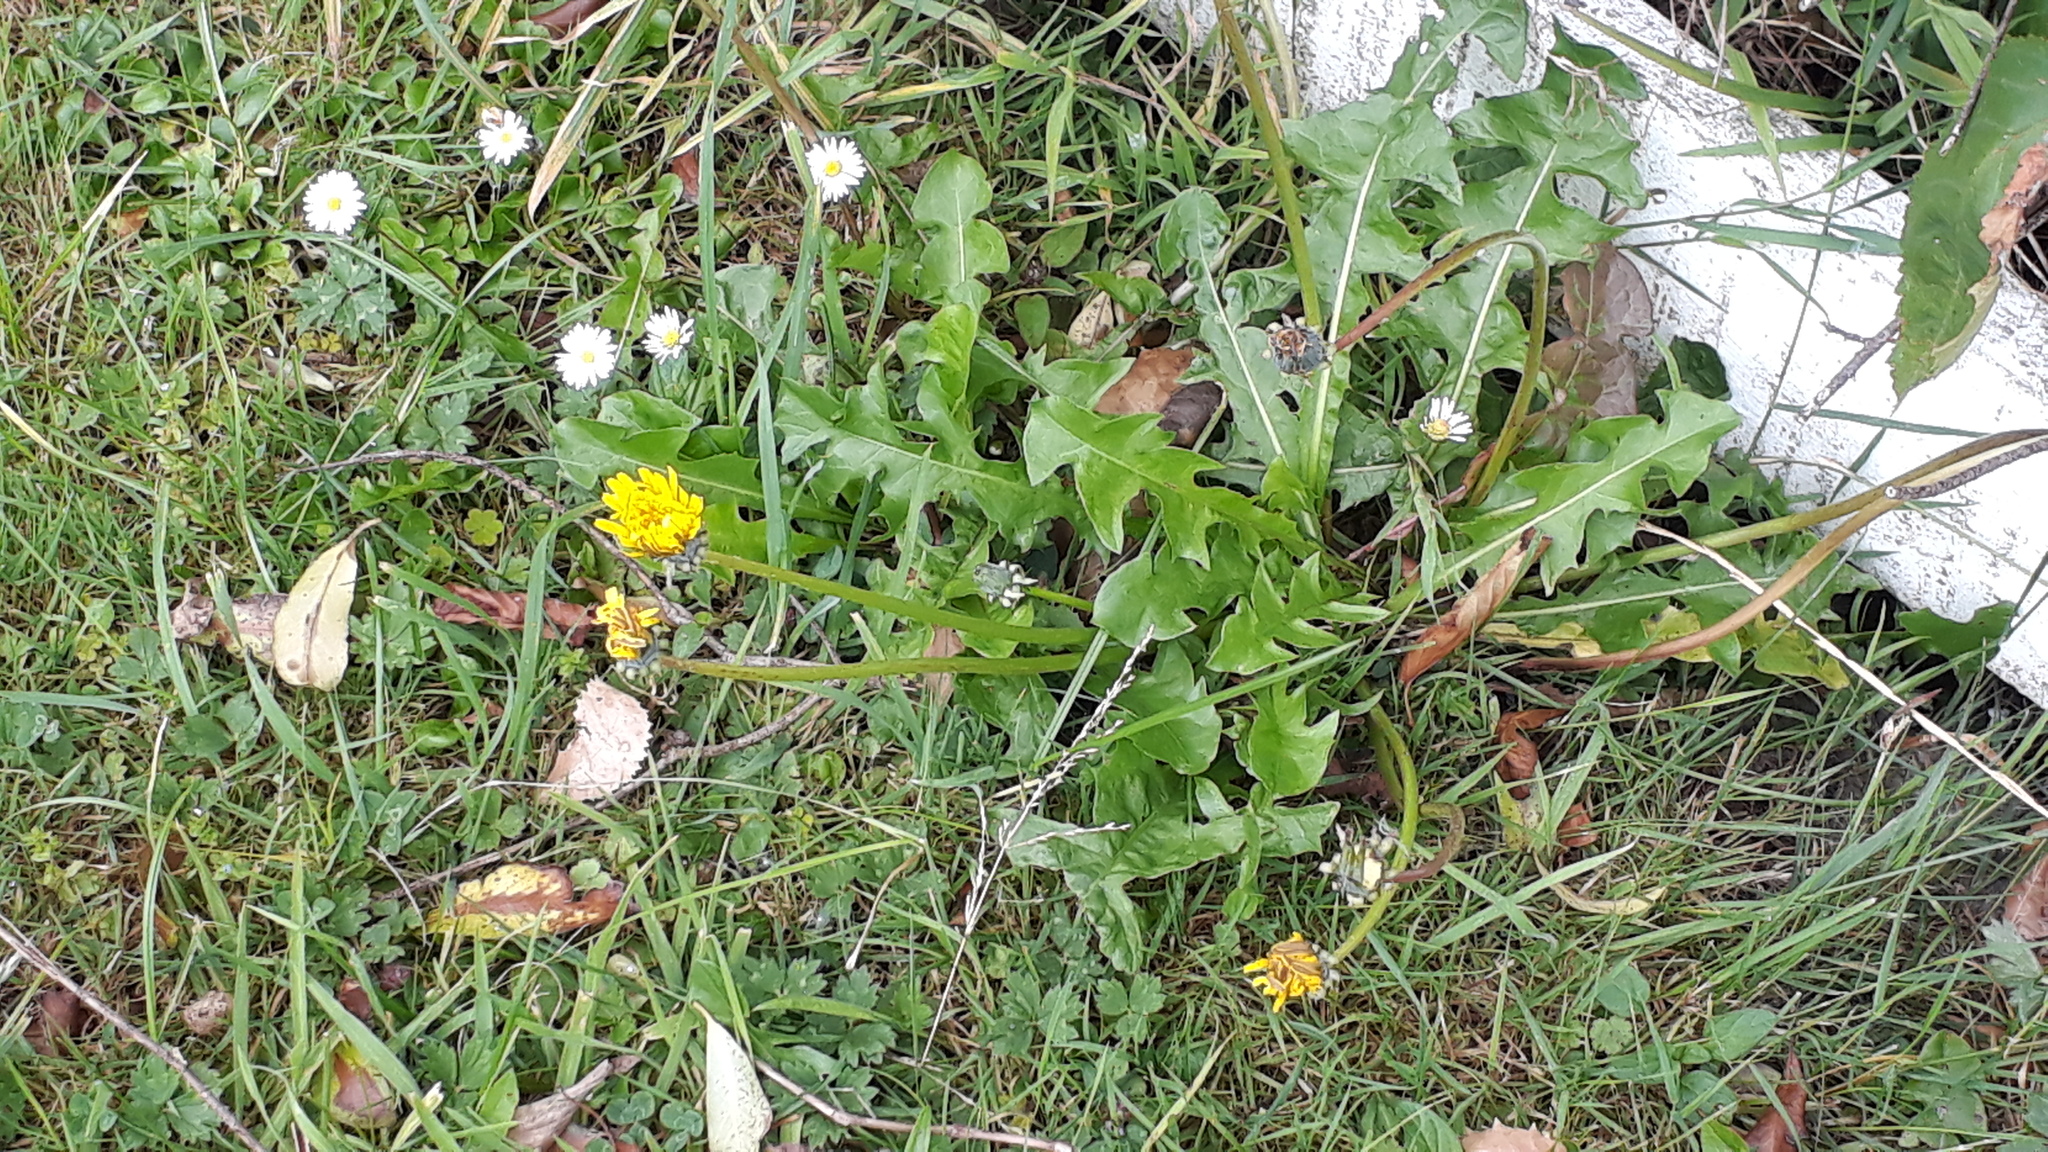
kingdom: Plantae
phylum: Tracheophyta
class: Magnoliopsida
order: Asterales
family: Asteraceae
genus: Taraxacum
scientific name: Taraxacum officinale
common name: Common dandelion
